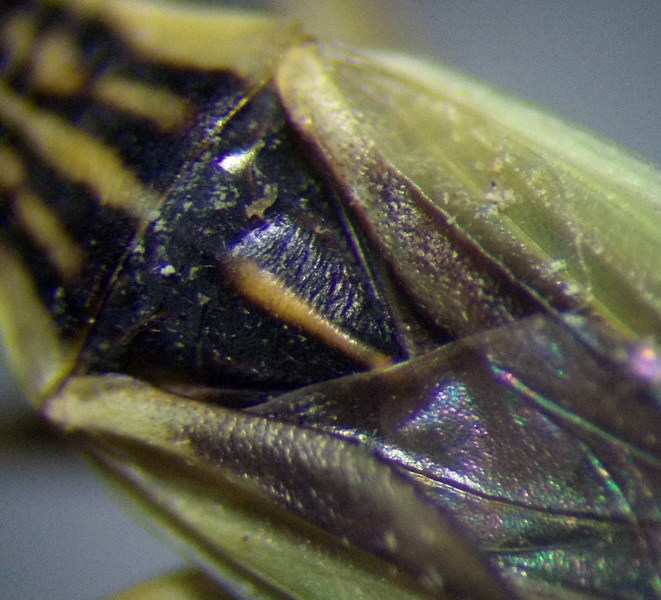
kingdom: Animalia
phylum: Arthropoda
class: Insecta
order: Hemiptera
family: Miridae
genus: Notostira
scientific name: Notostira elongata
